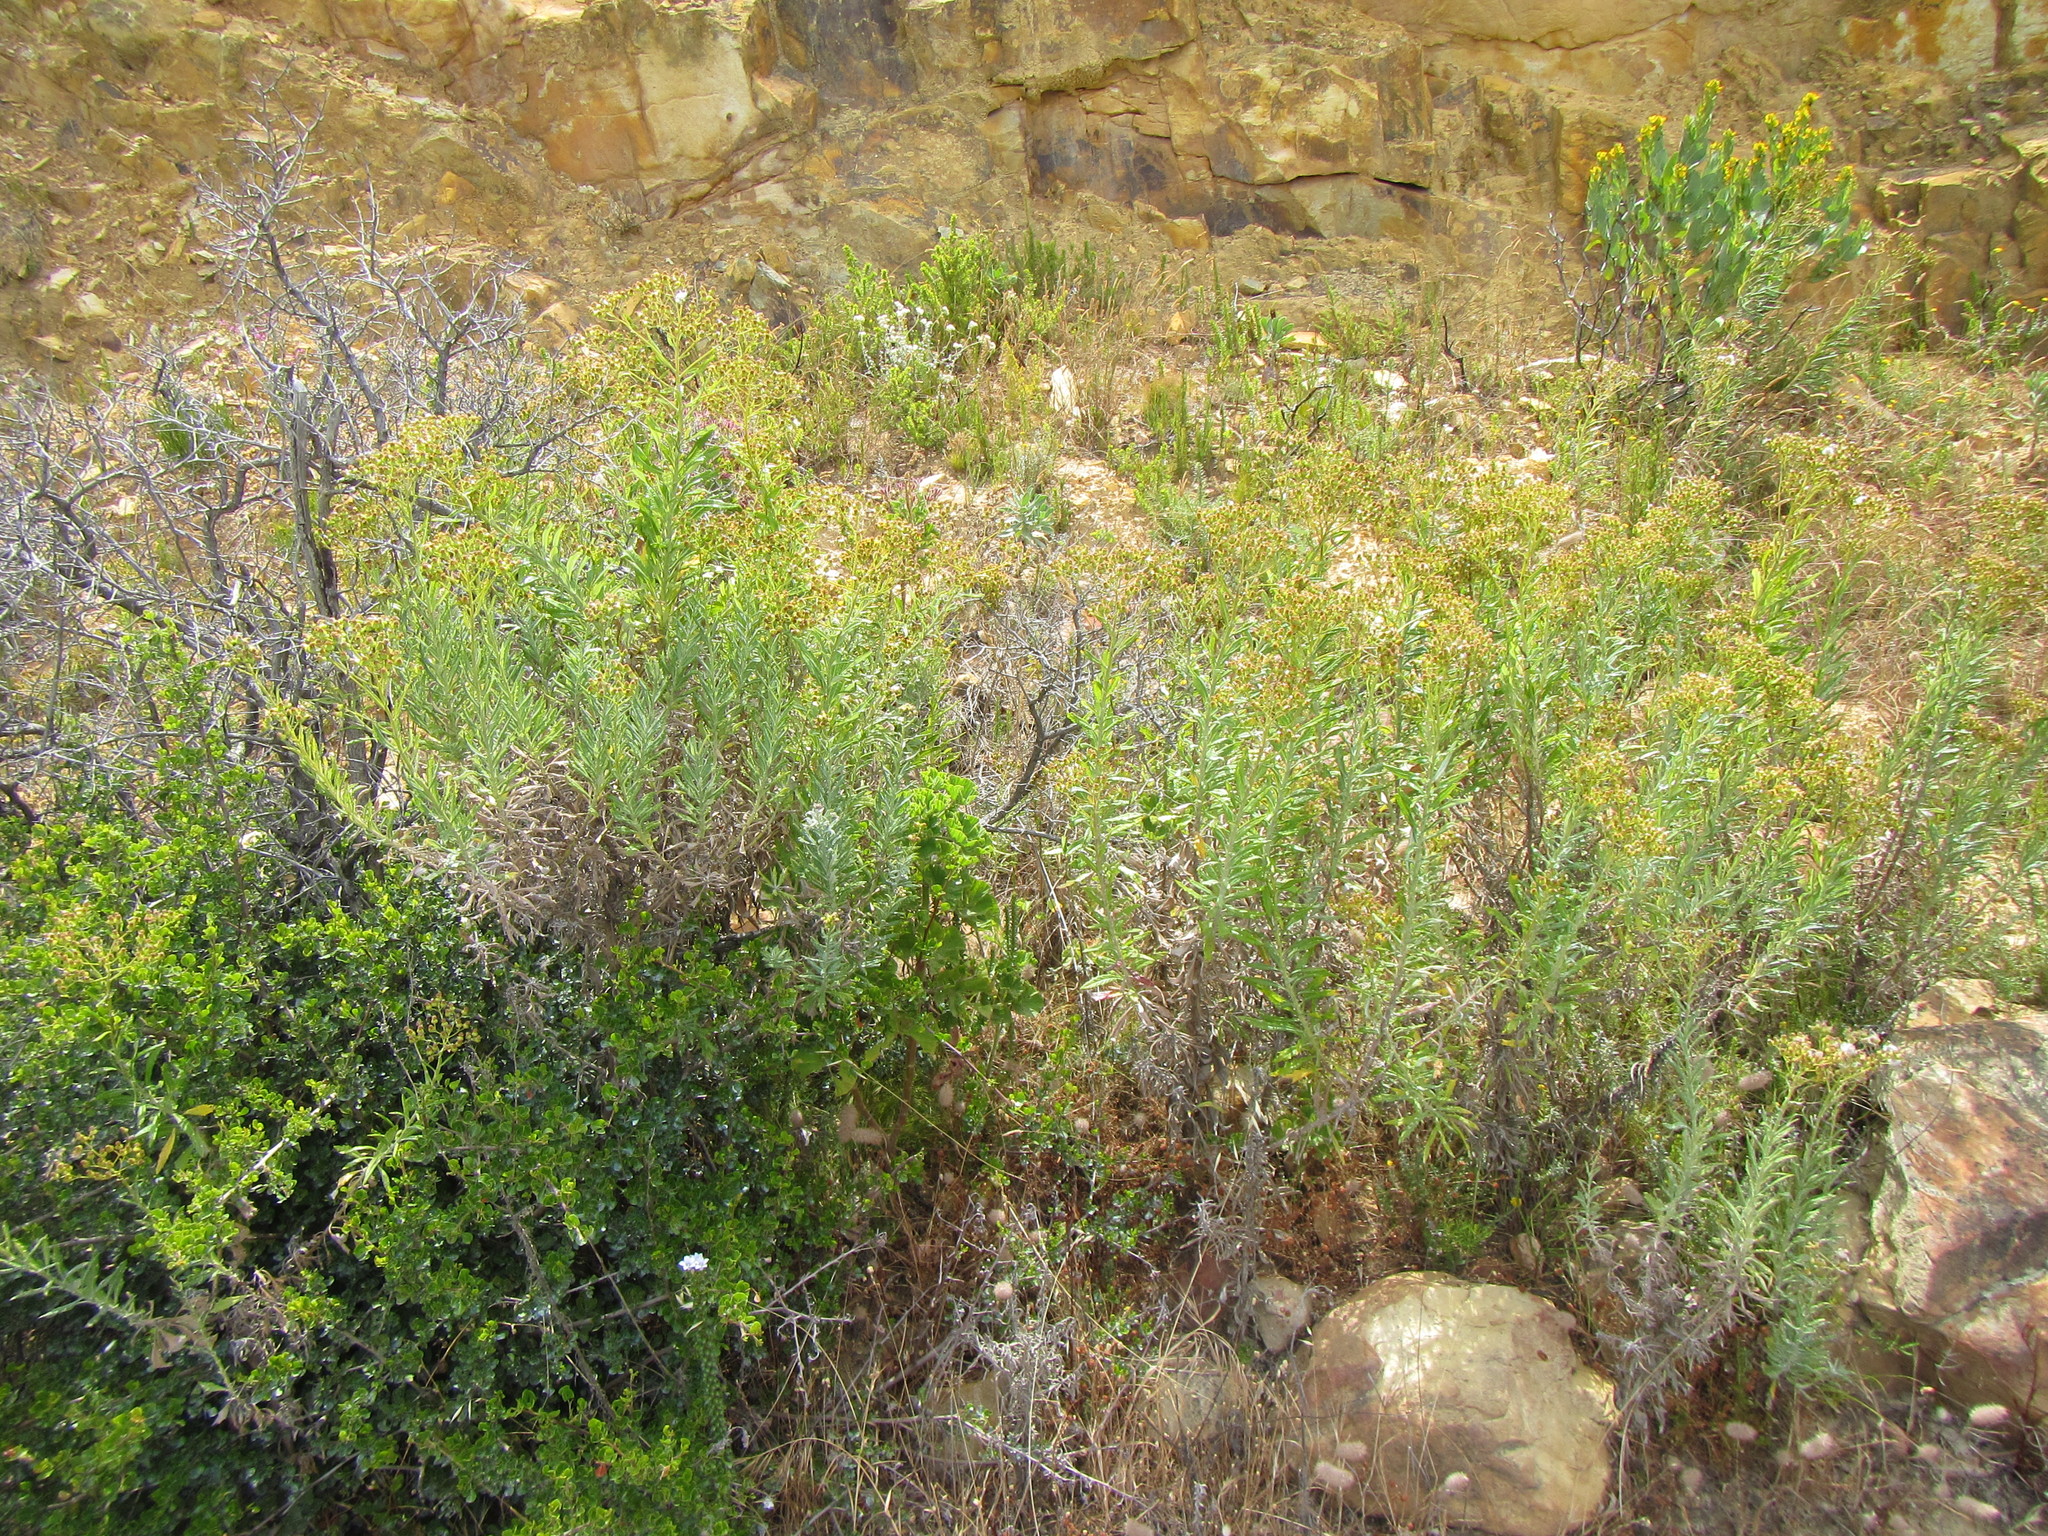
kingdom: Plantae
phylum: Tracheophyta
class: Magnoliopsida
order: Asterales
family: Asteraceae
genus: Senecio
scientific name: Senecio pterophorus
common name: Shoddy ragwort
